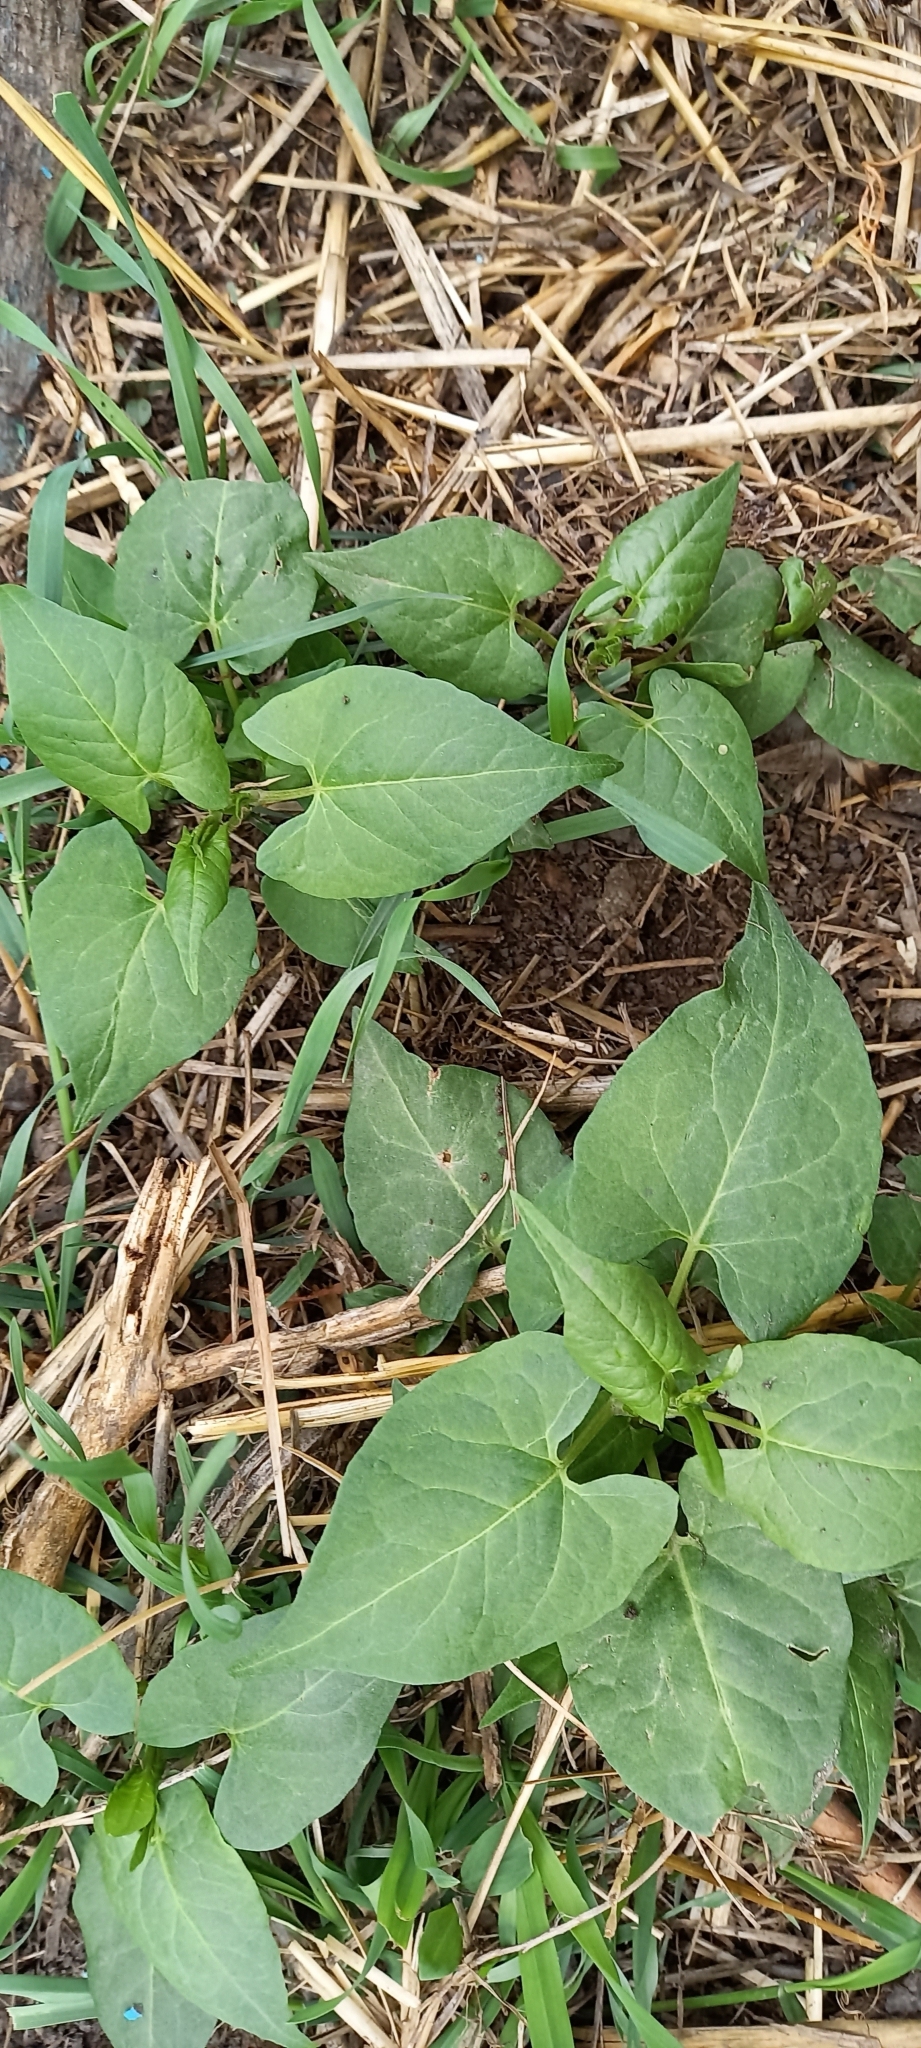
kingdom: Plantae
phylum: Tracheophyta
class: Magnoliopsida
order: Caryophyllales
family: Polygonaceae
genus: Fallopia
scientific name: Fallopia convolvulus
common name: Black bindweed
